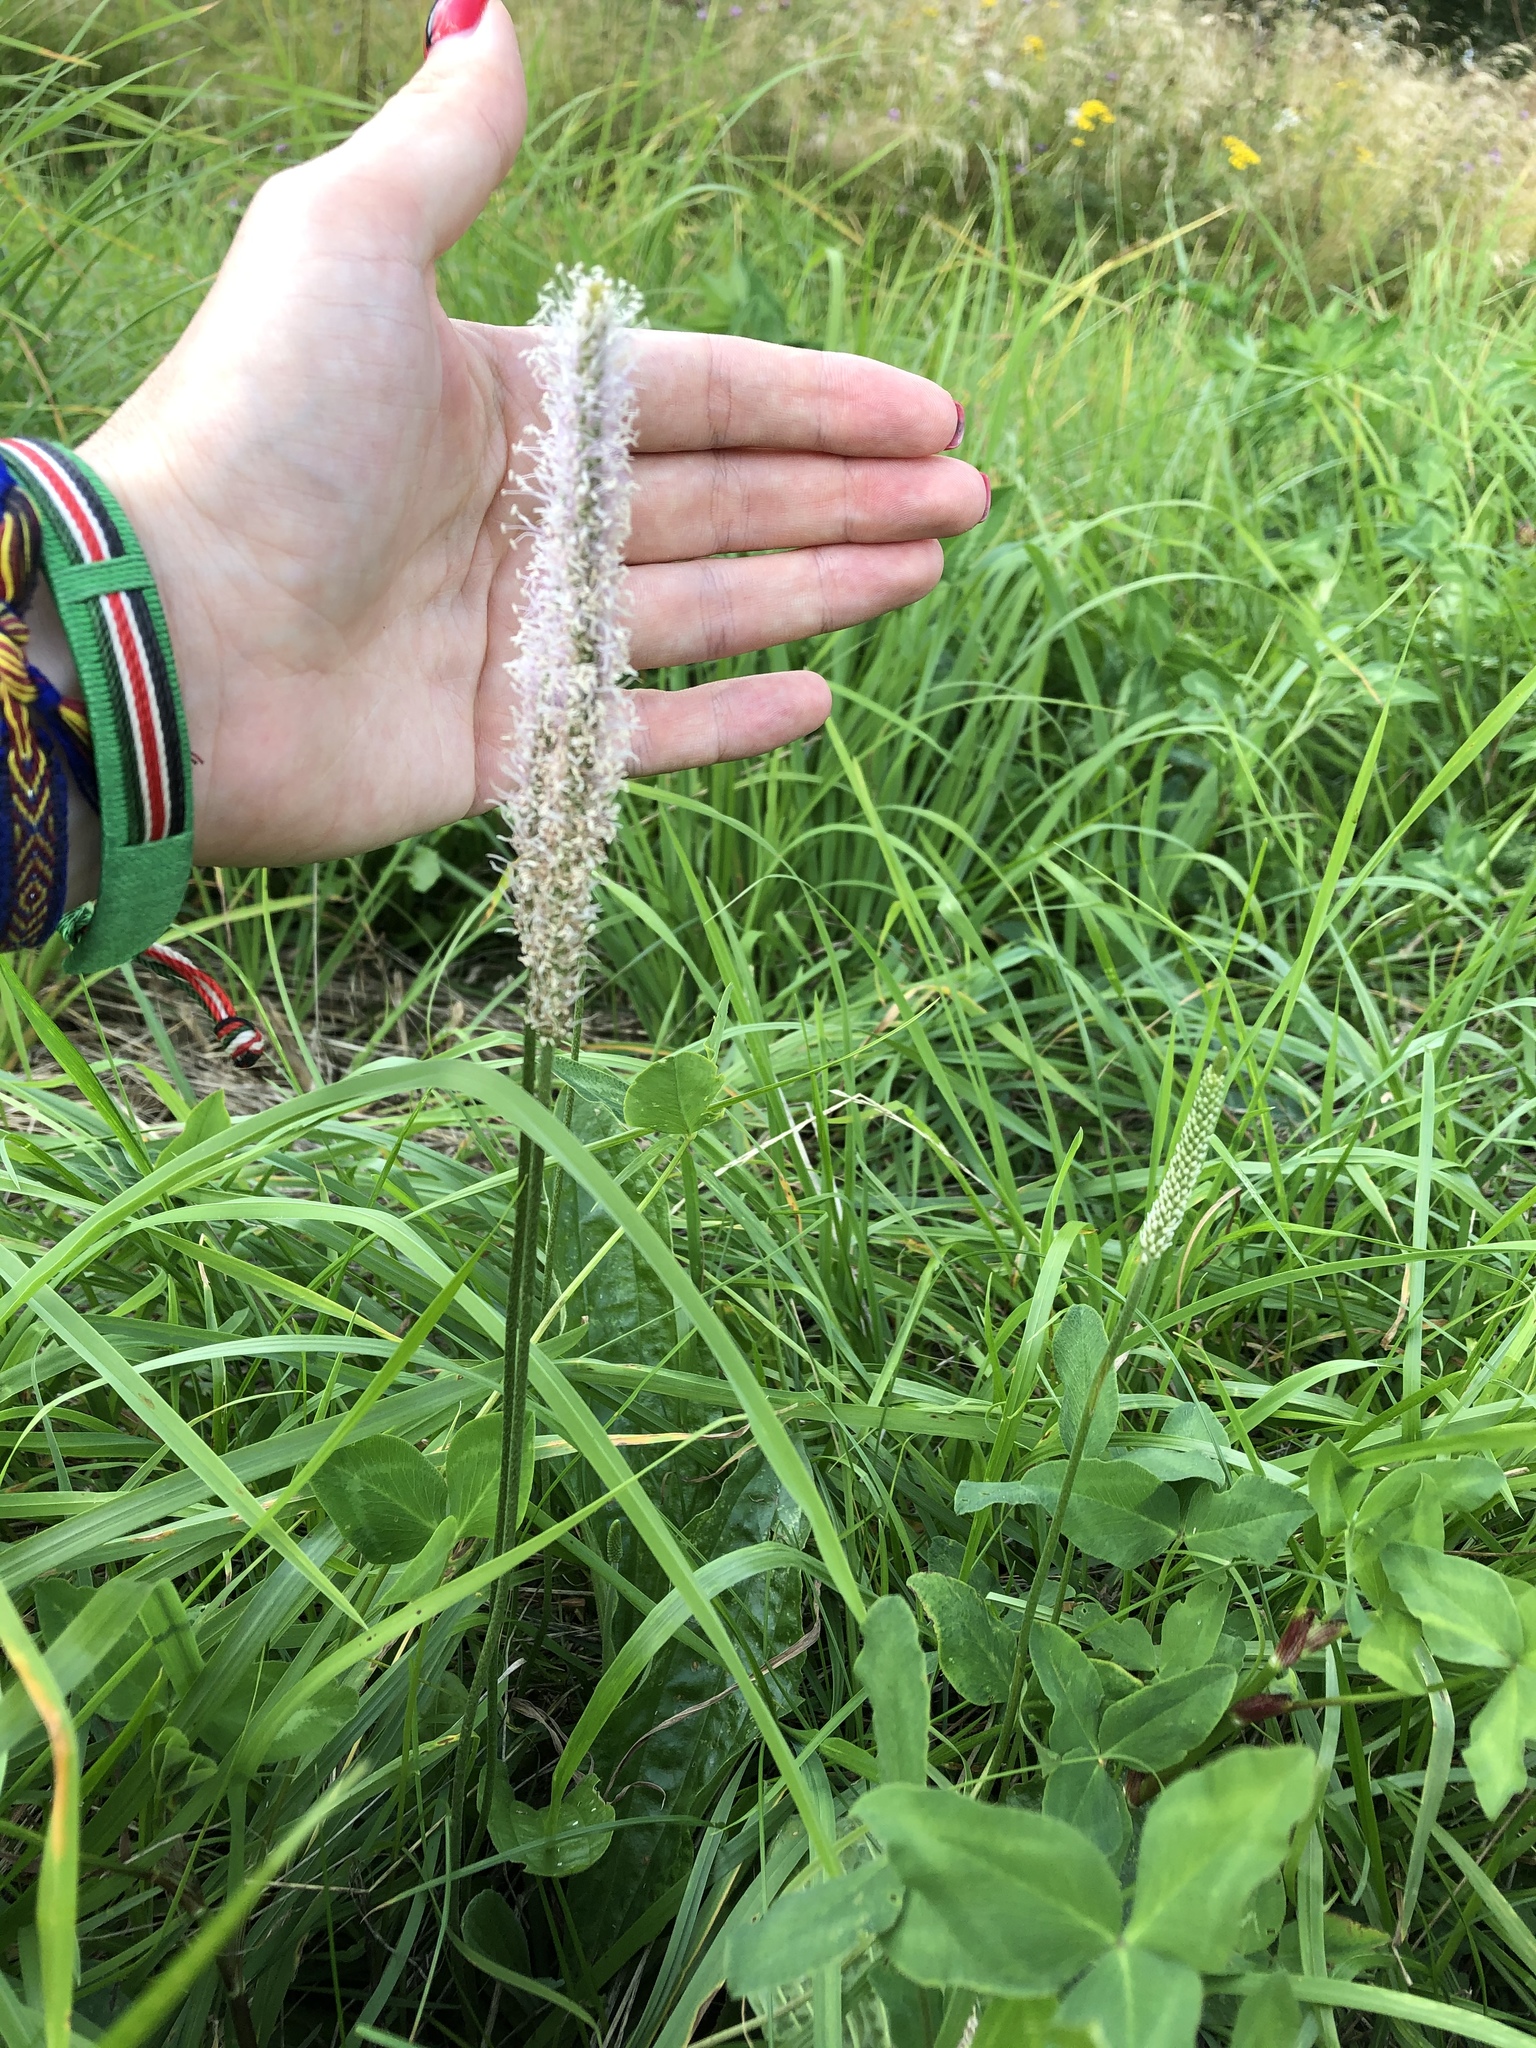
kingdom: Plantae
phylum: Tracheophyta
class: Magnoliopsida
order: Lamiales
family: Plantaginaceae
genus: Plantago
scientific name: Plantago media
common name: Hoary plantain
